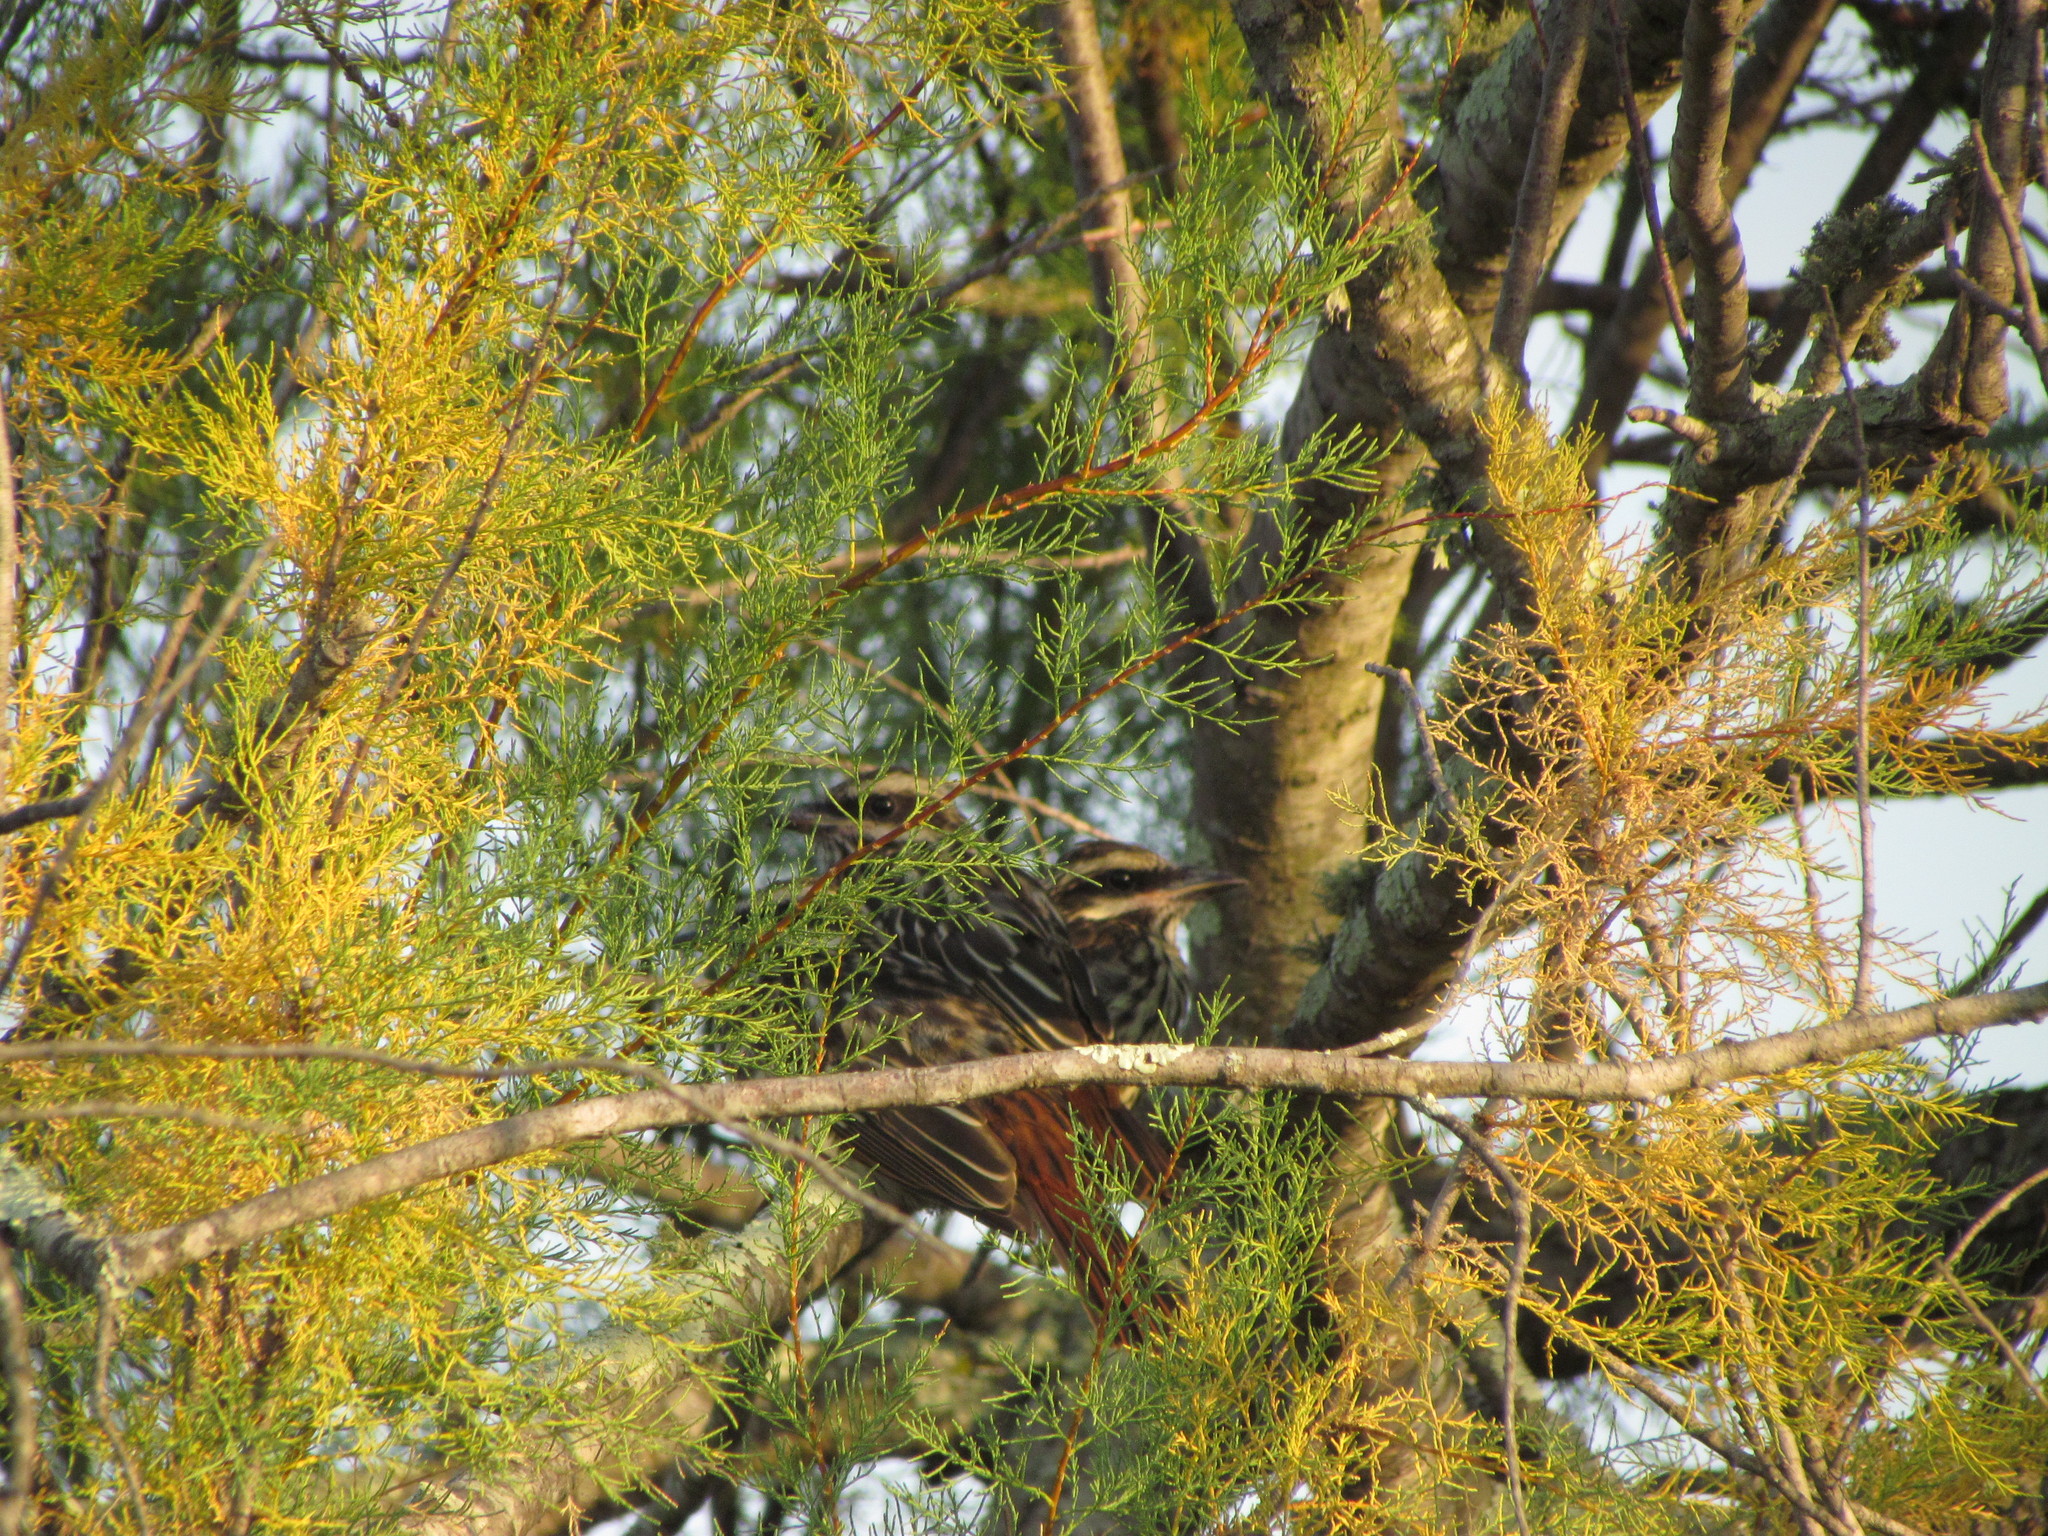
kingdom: Animalia
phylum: Chordata
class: Aves
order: Passeriformes
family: Tyrannidae
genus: Myiodynastes
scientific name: Myiodynastes maculatus
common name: Streaked flycatcher
